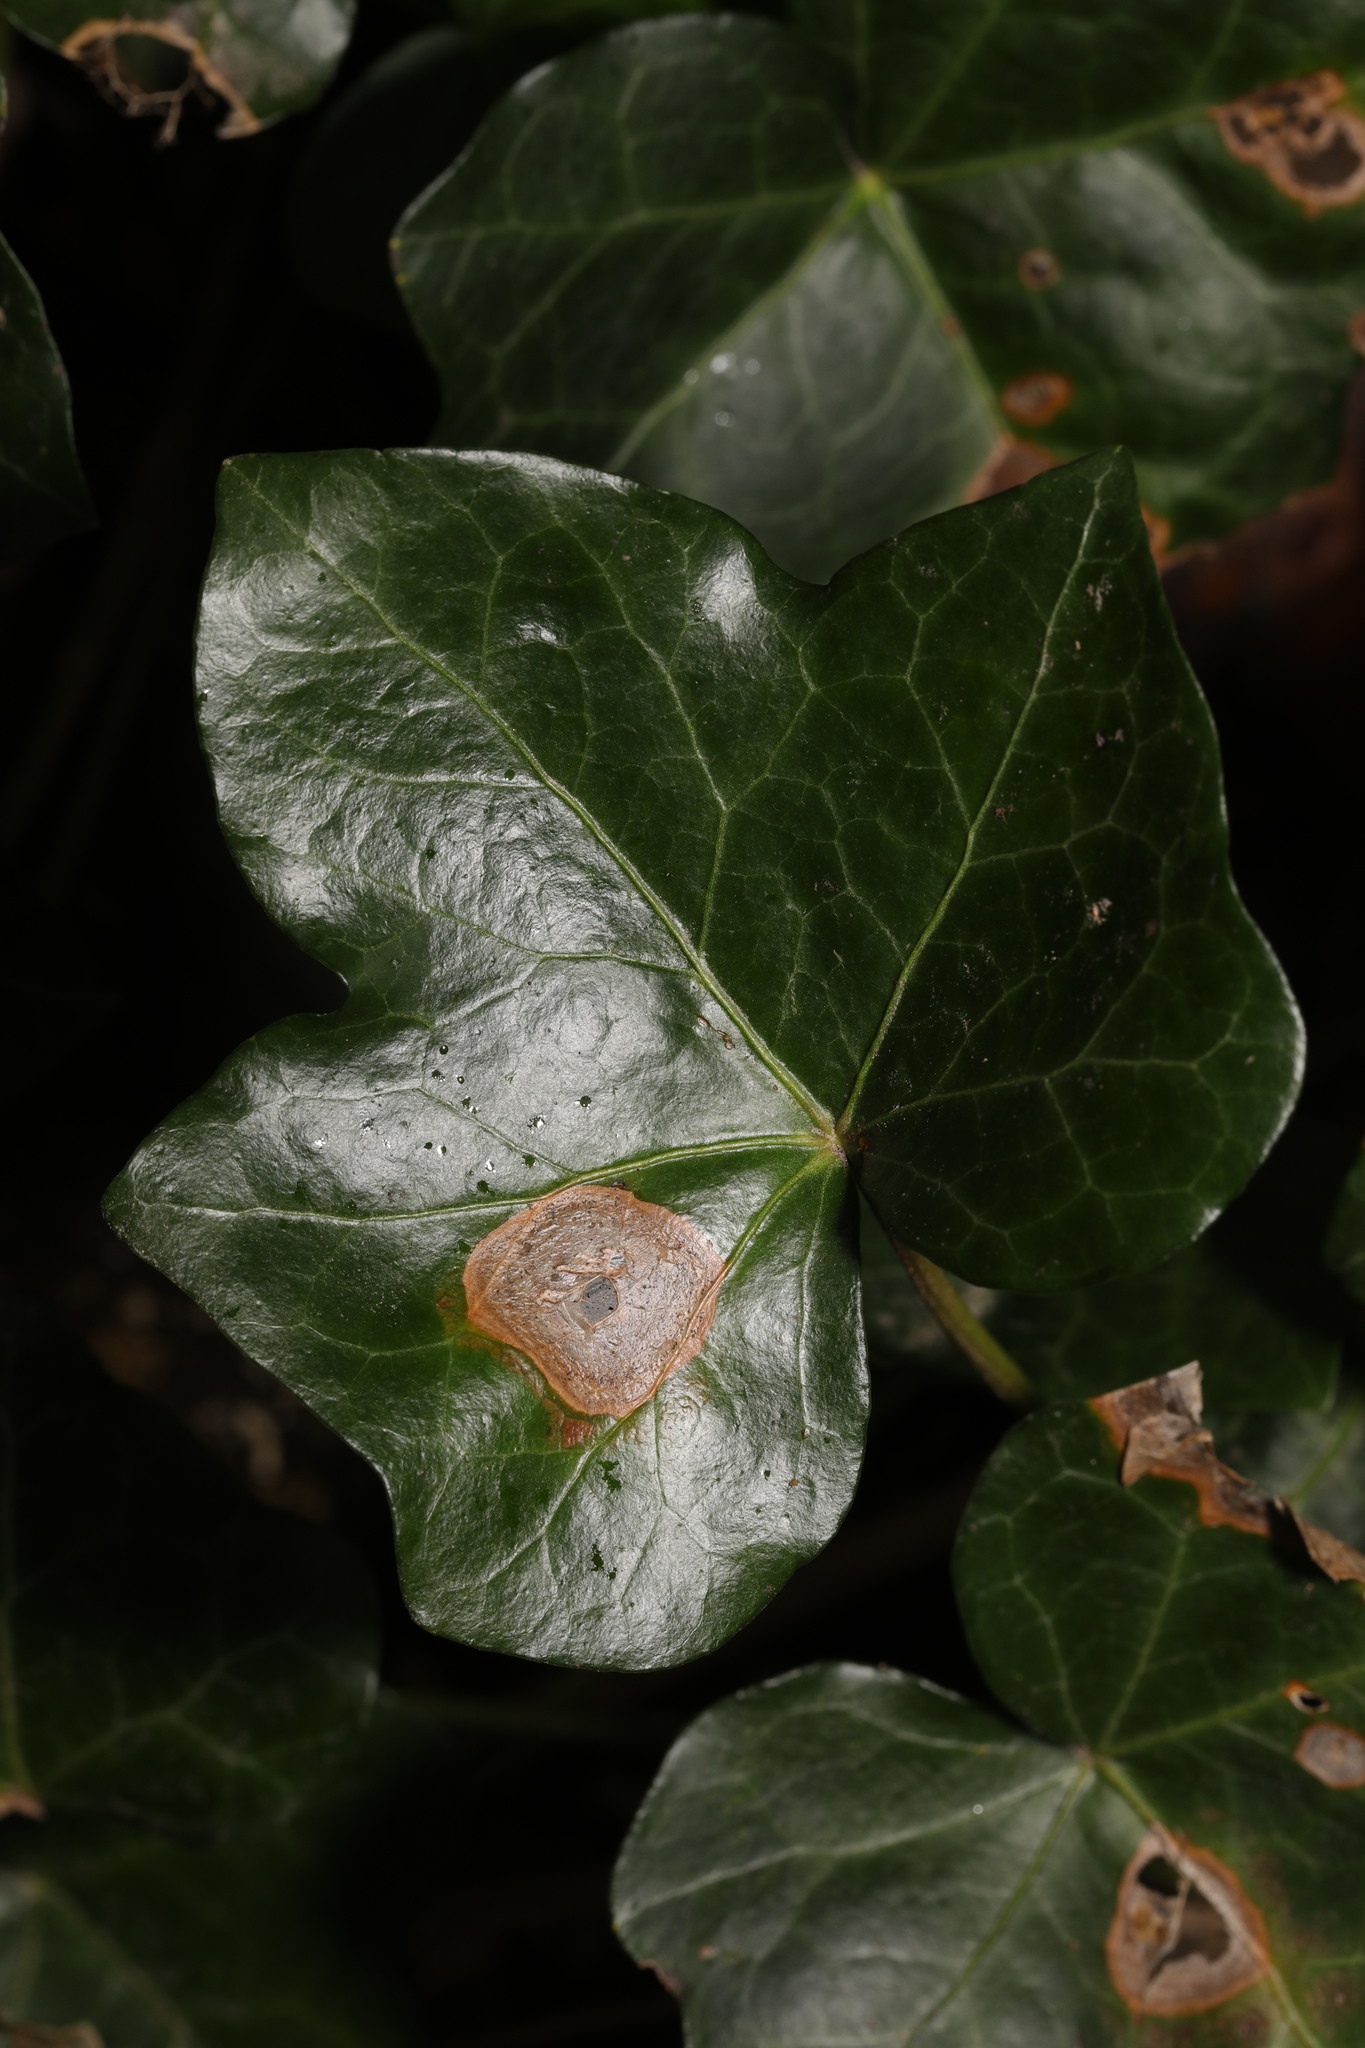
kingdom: Fungi
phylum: Ascomycota
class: Dothideomycetes
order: Pleosporales
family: Didymellaceae
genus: Boeremia
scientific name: Boeremia hedericola
